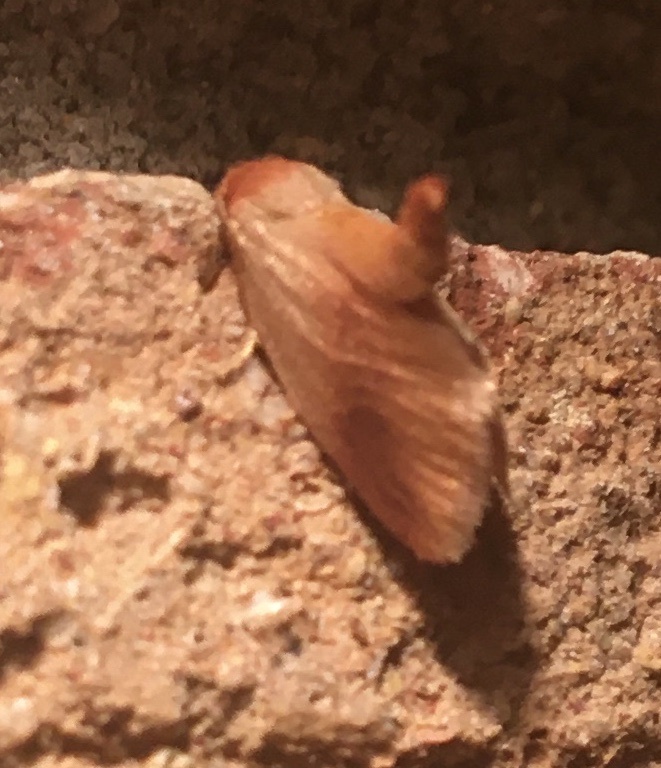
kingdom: Animalia
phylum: Arthropoda
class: Insecta
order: Lepidoptera
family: Limacodidae
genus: Tortricidia
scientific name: Tortricidia testacea
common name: Early button slug moth
